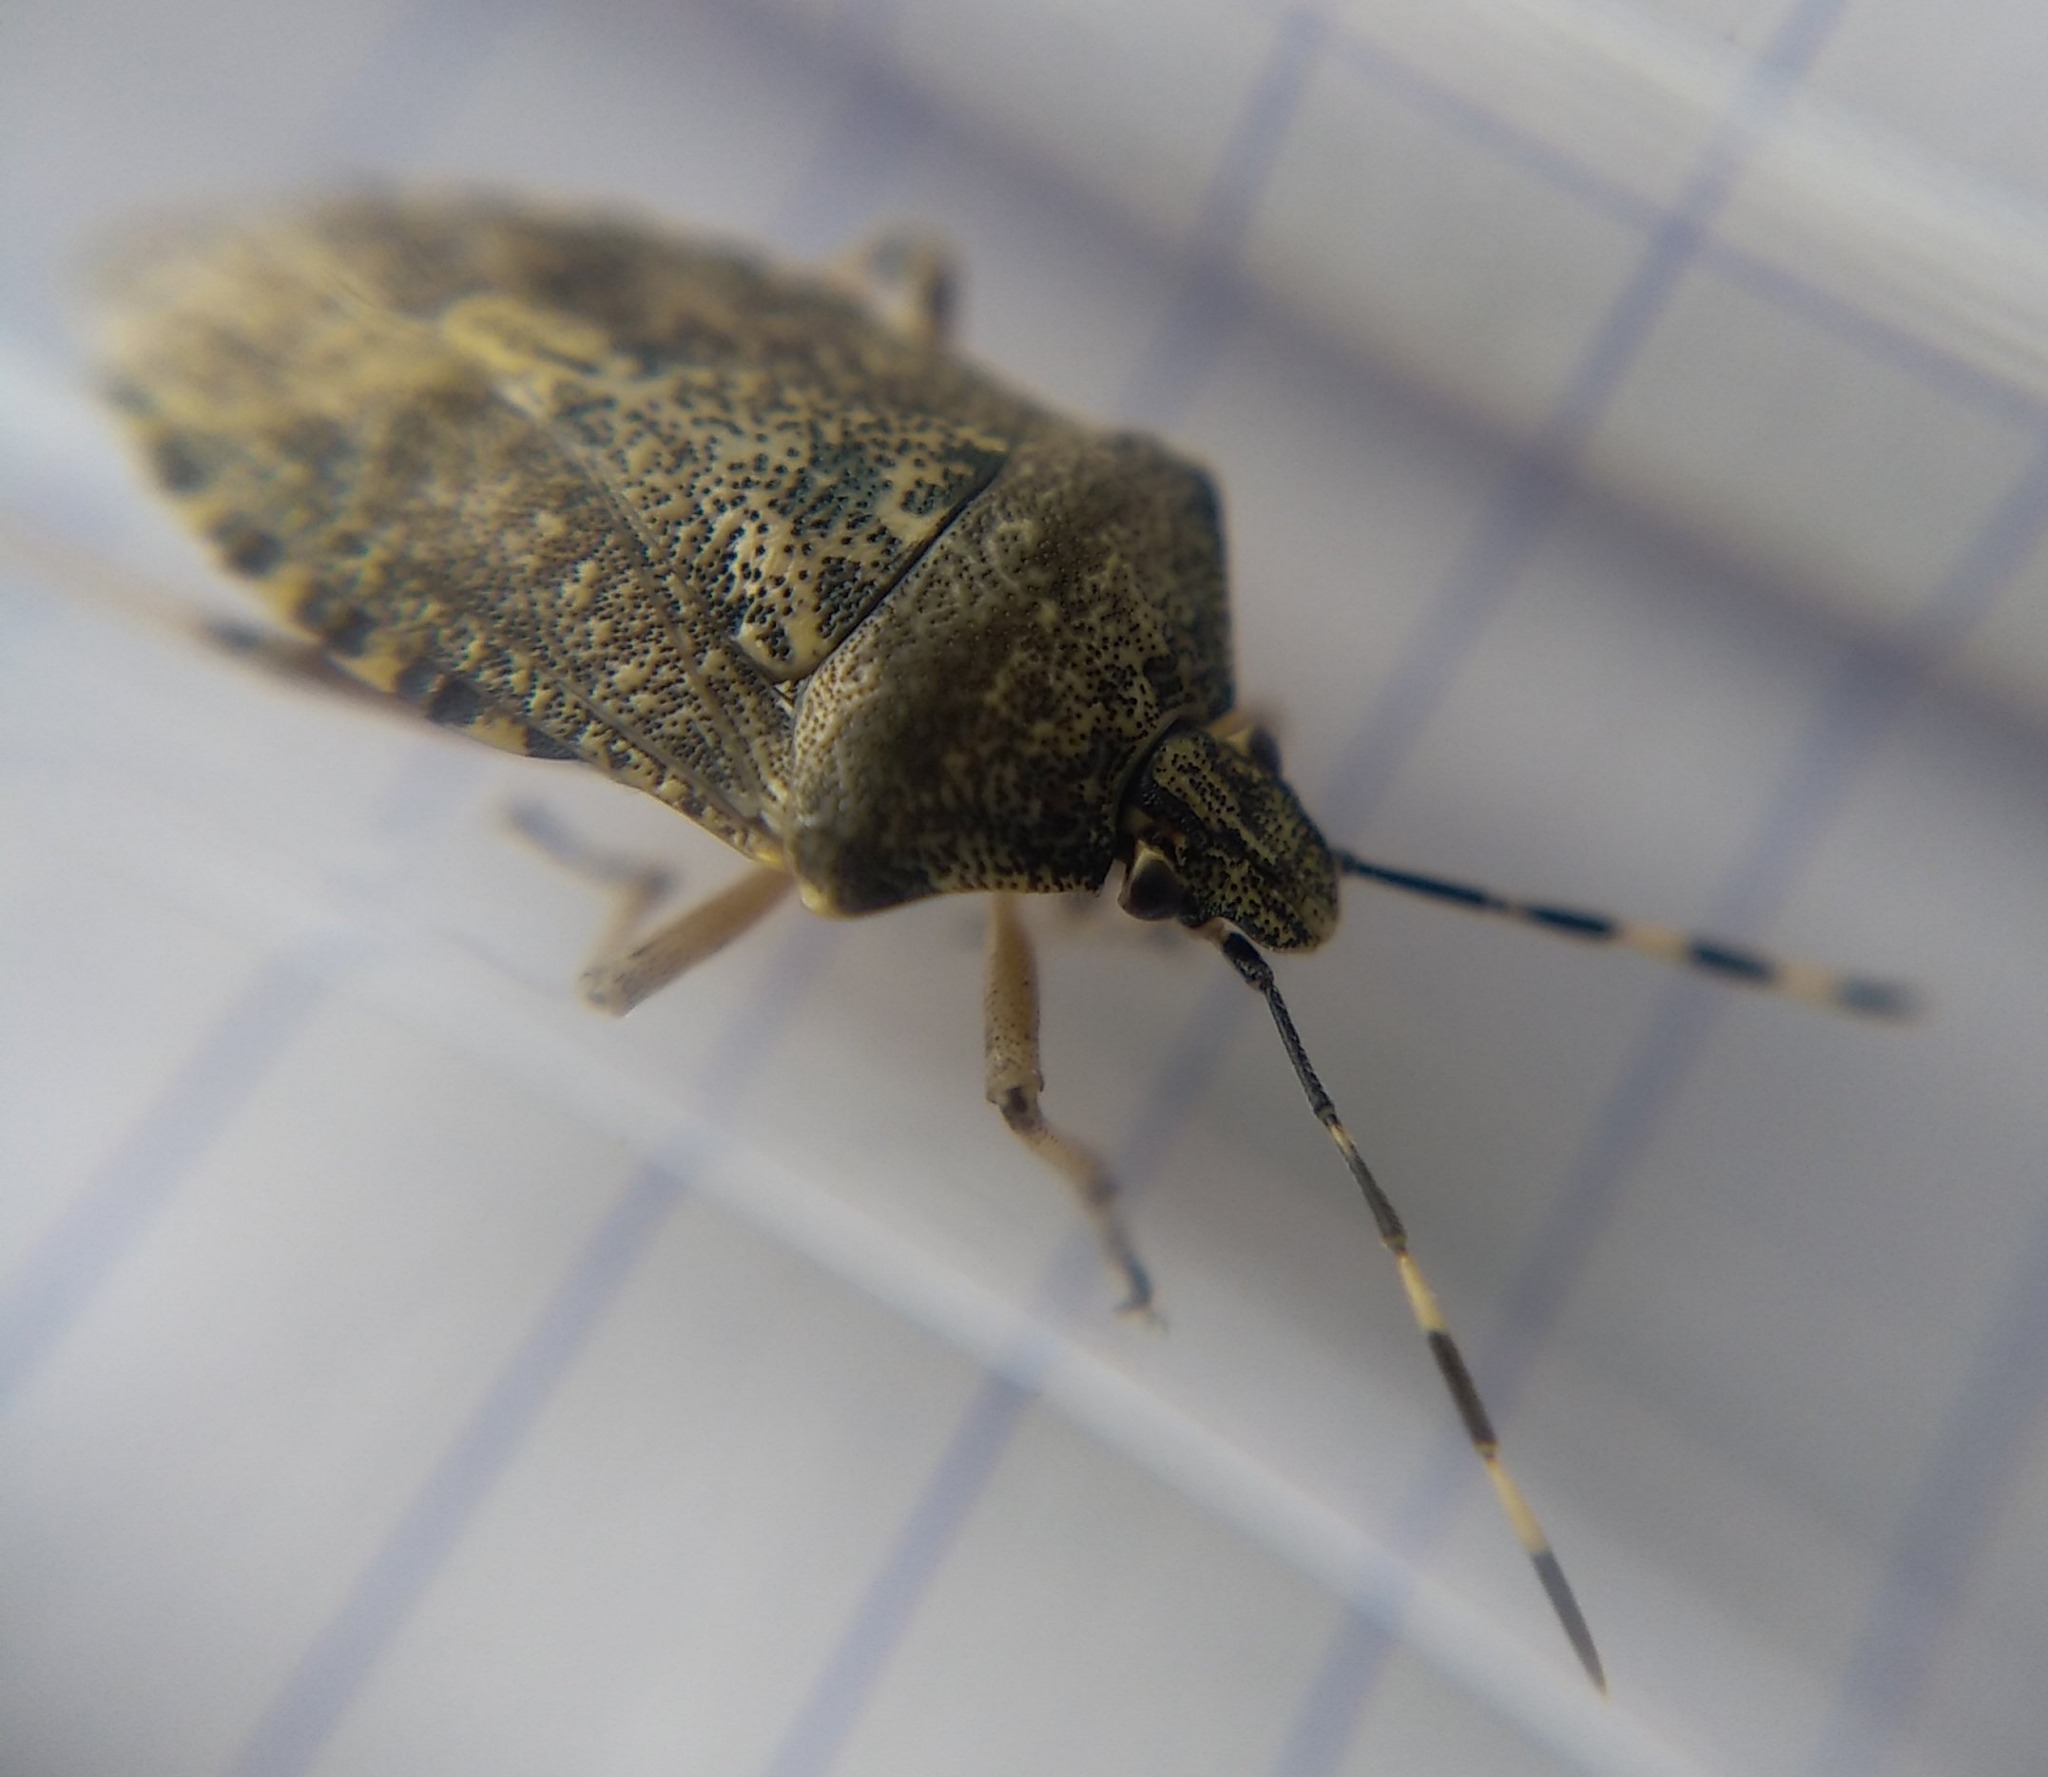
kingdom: Animalia
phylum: Arthropoda
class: Insecta
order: Hemiptera
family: Pentatomidae
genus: Rhaphigaster
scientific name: Rhaphigaster nebulosa
